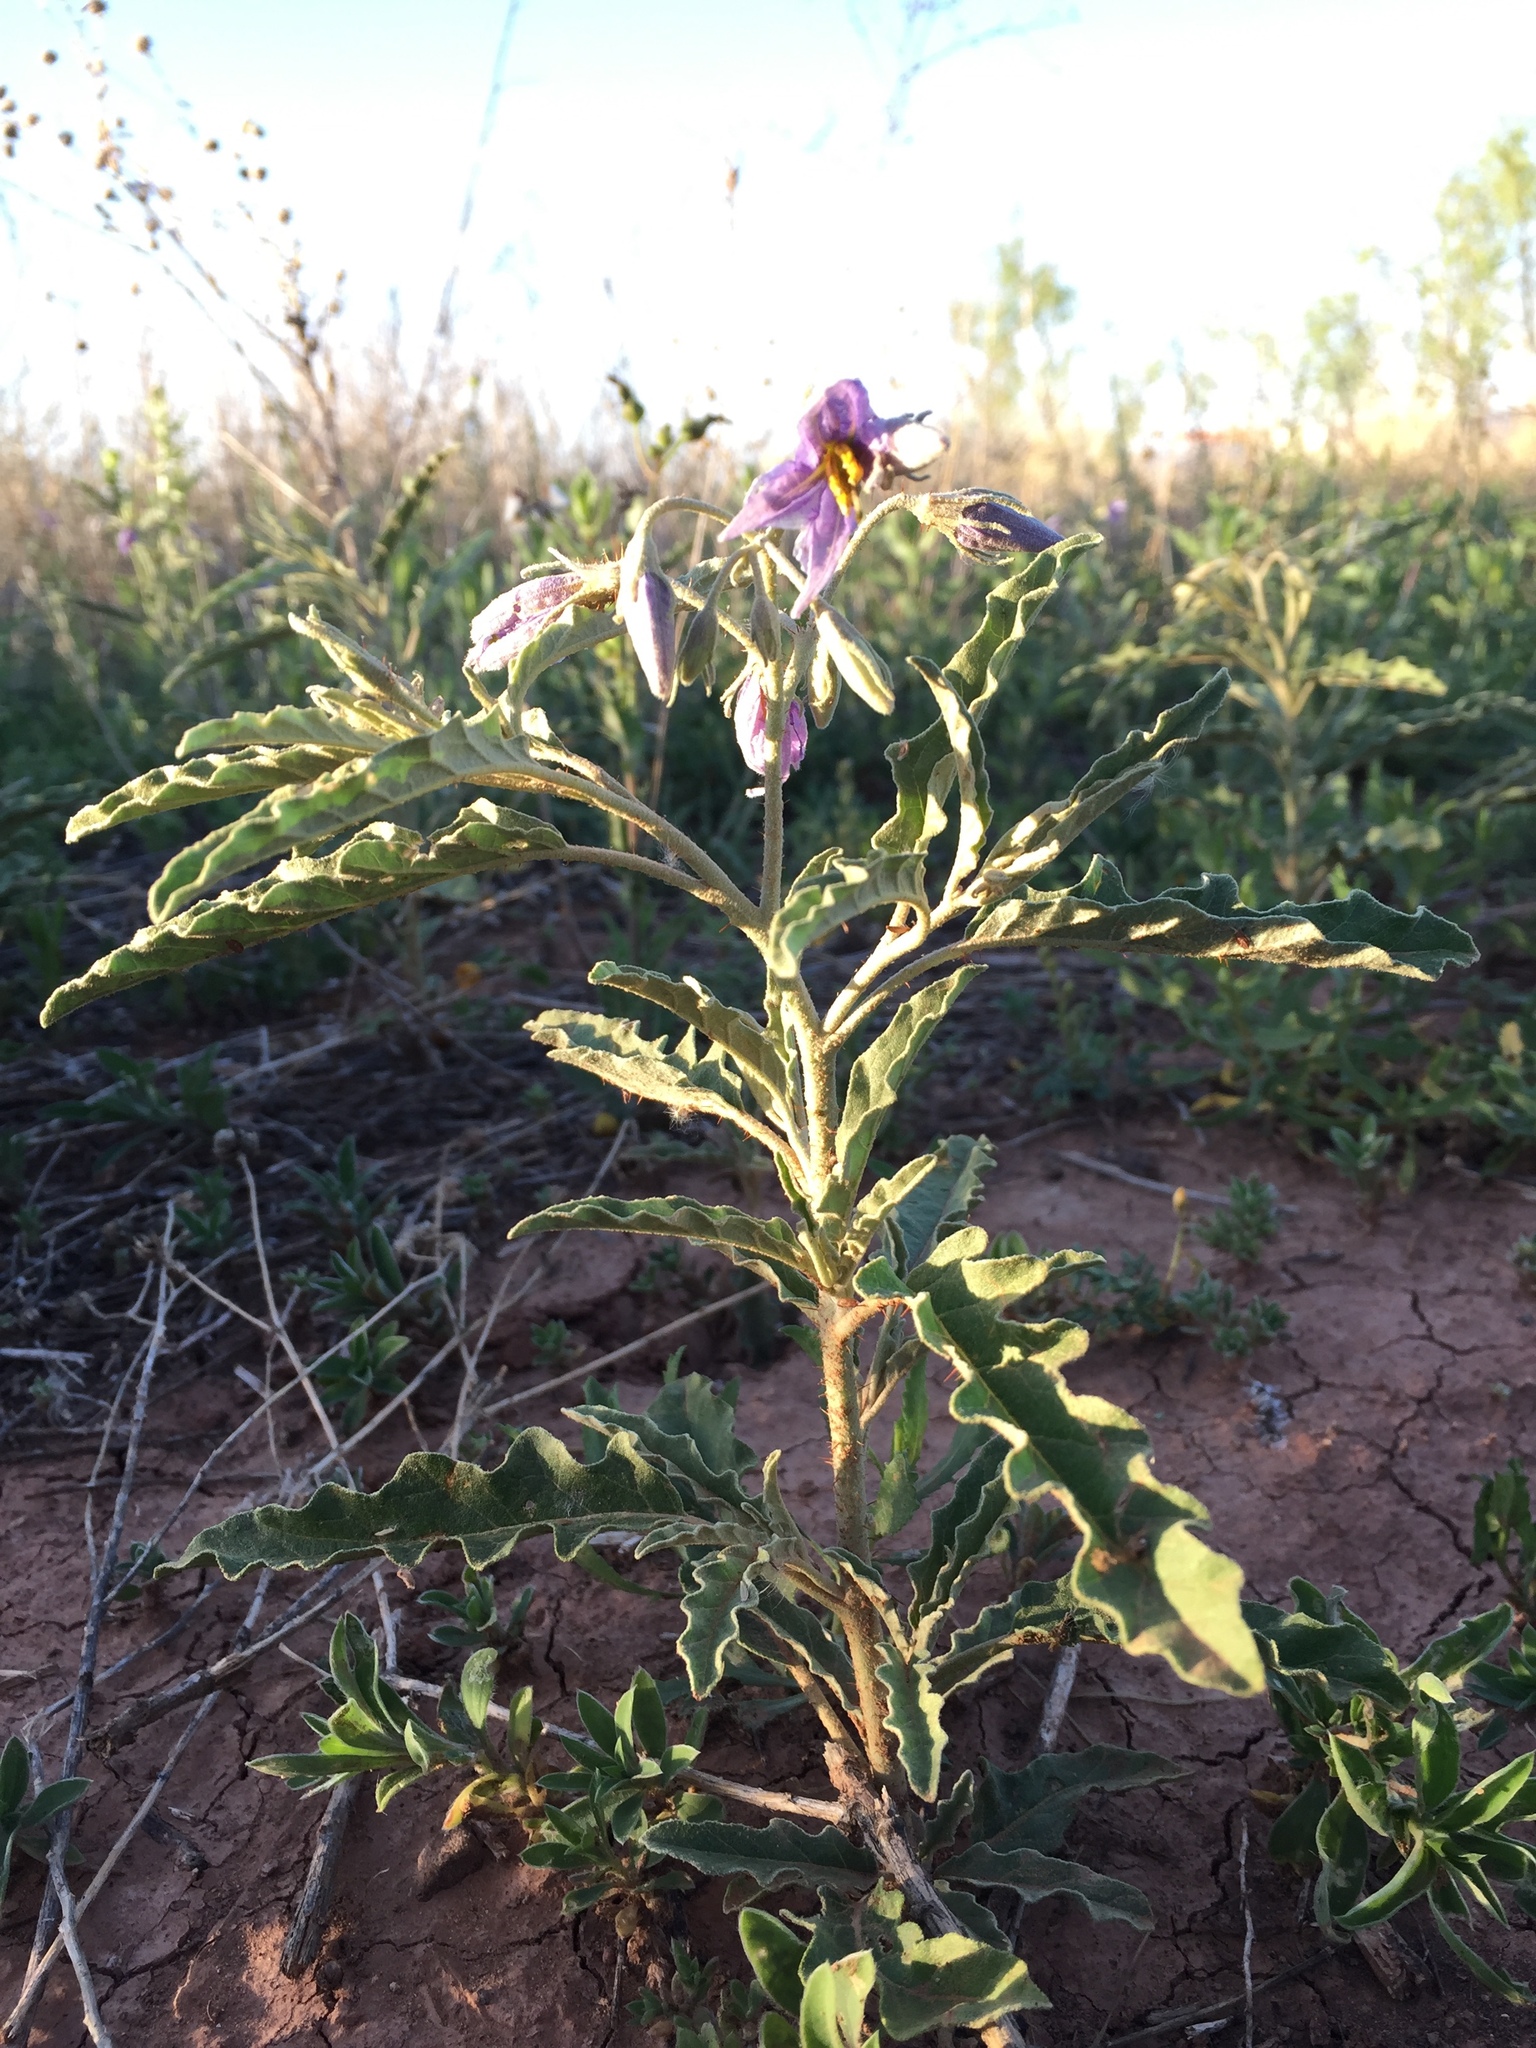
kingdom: Plantae
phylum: Tracheophyta
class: Magnoliopsida
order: Solanales
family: Solanaceae
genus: Solanum
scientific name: Solanum elaeagnifolium
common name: Silverleaf nightshade
